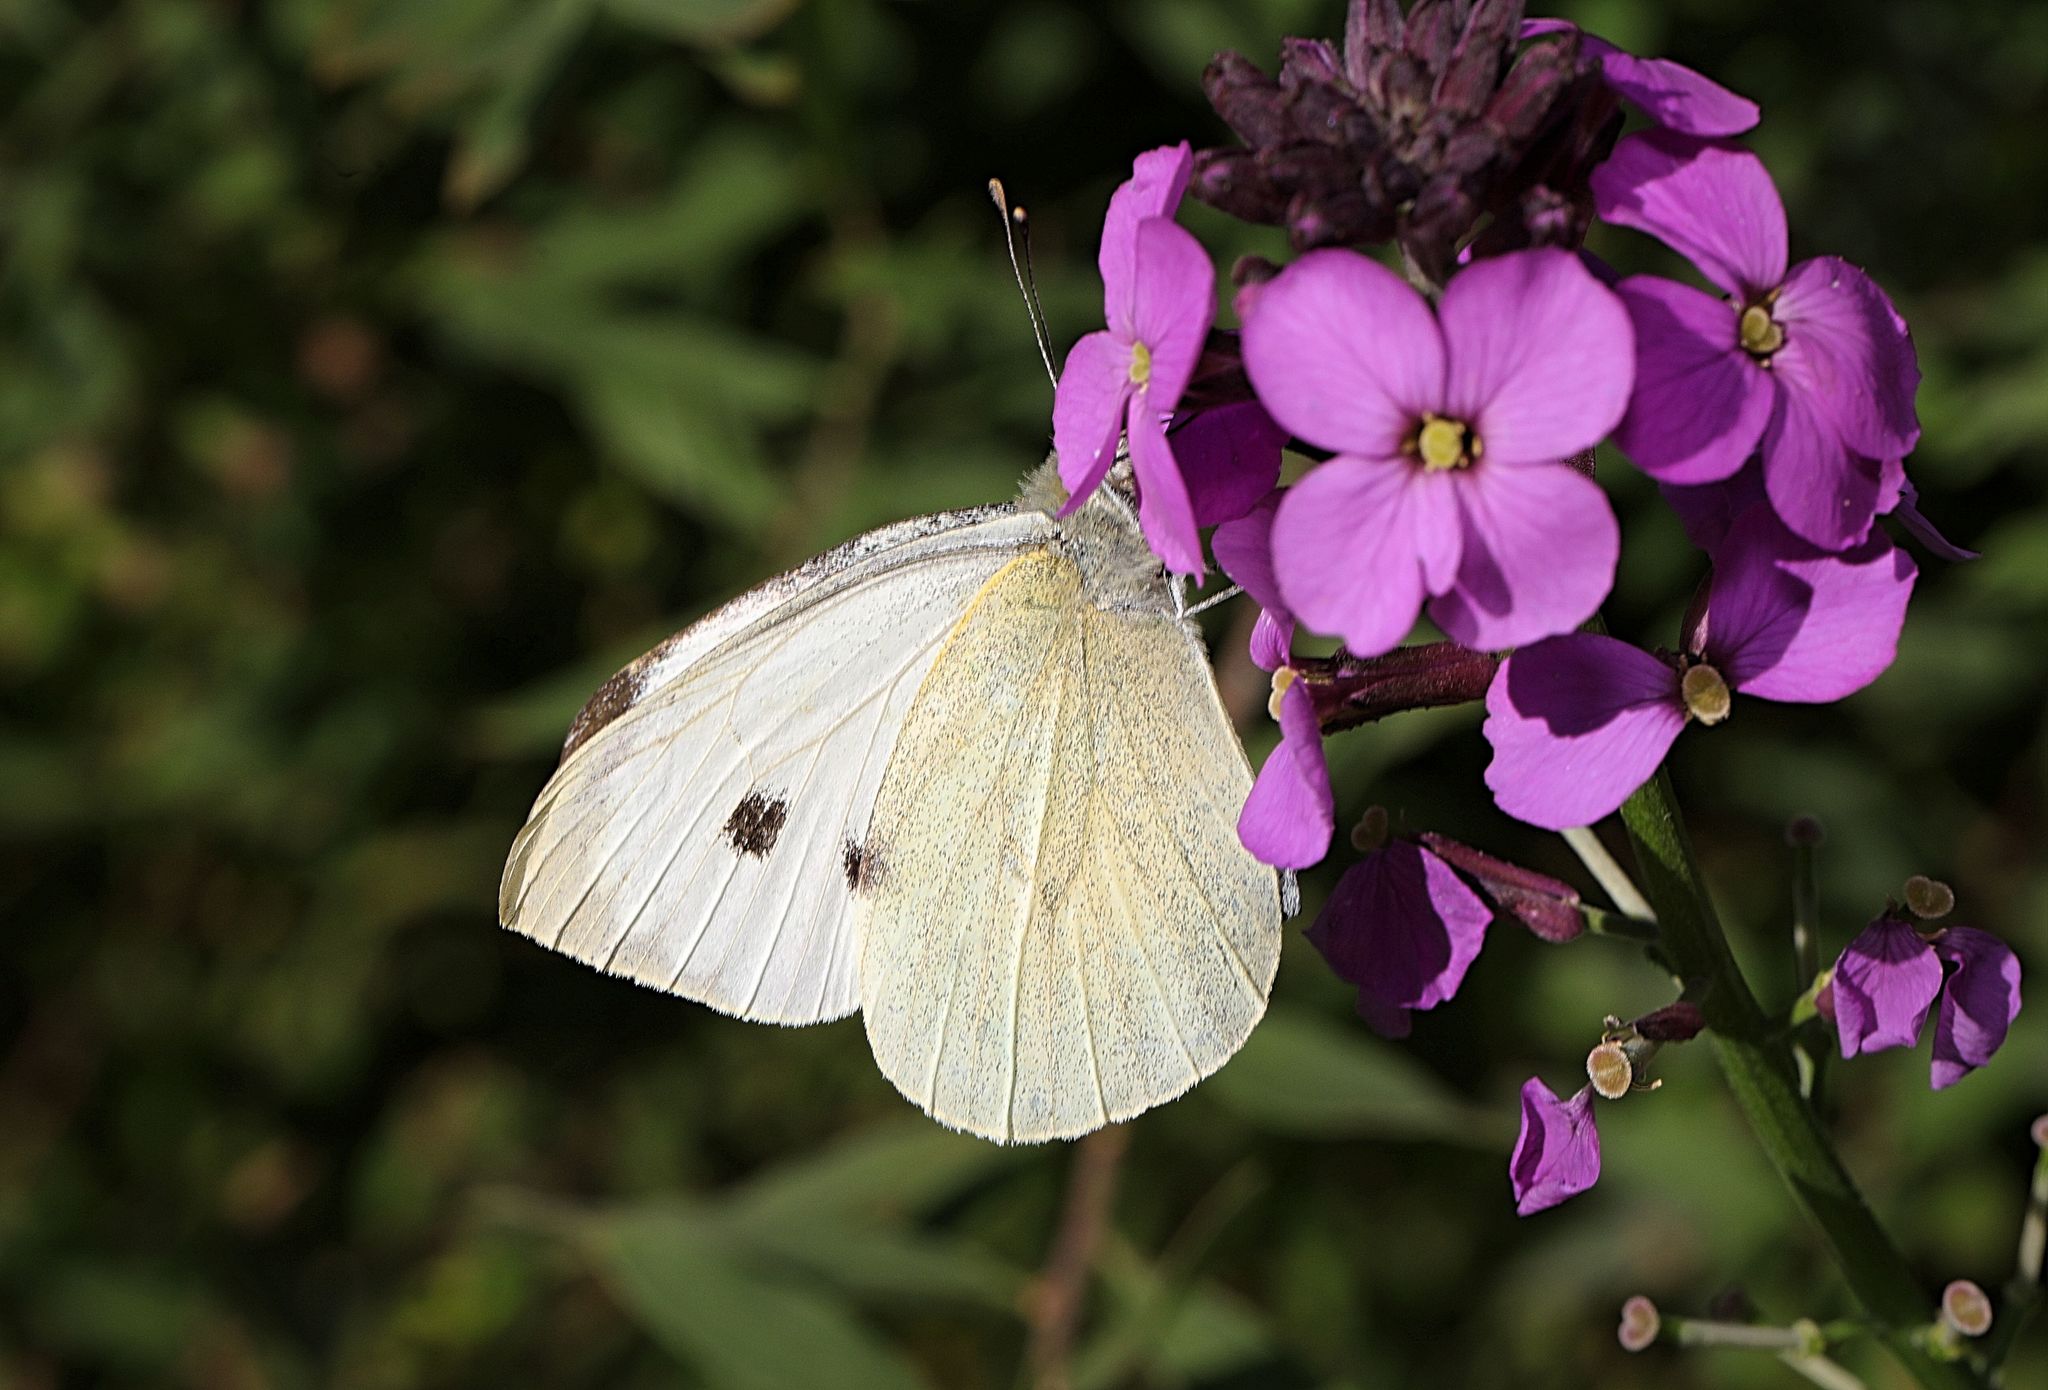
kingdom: Animalia
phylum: Arthropoda
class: Insecta
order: Lepidoptera
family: Pieridae
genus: Pieris
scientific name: Pieris brassicae
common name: Large white
